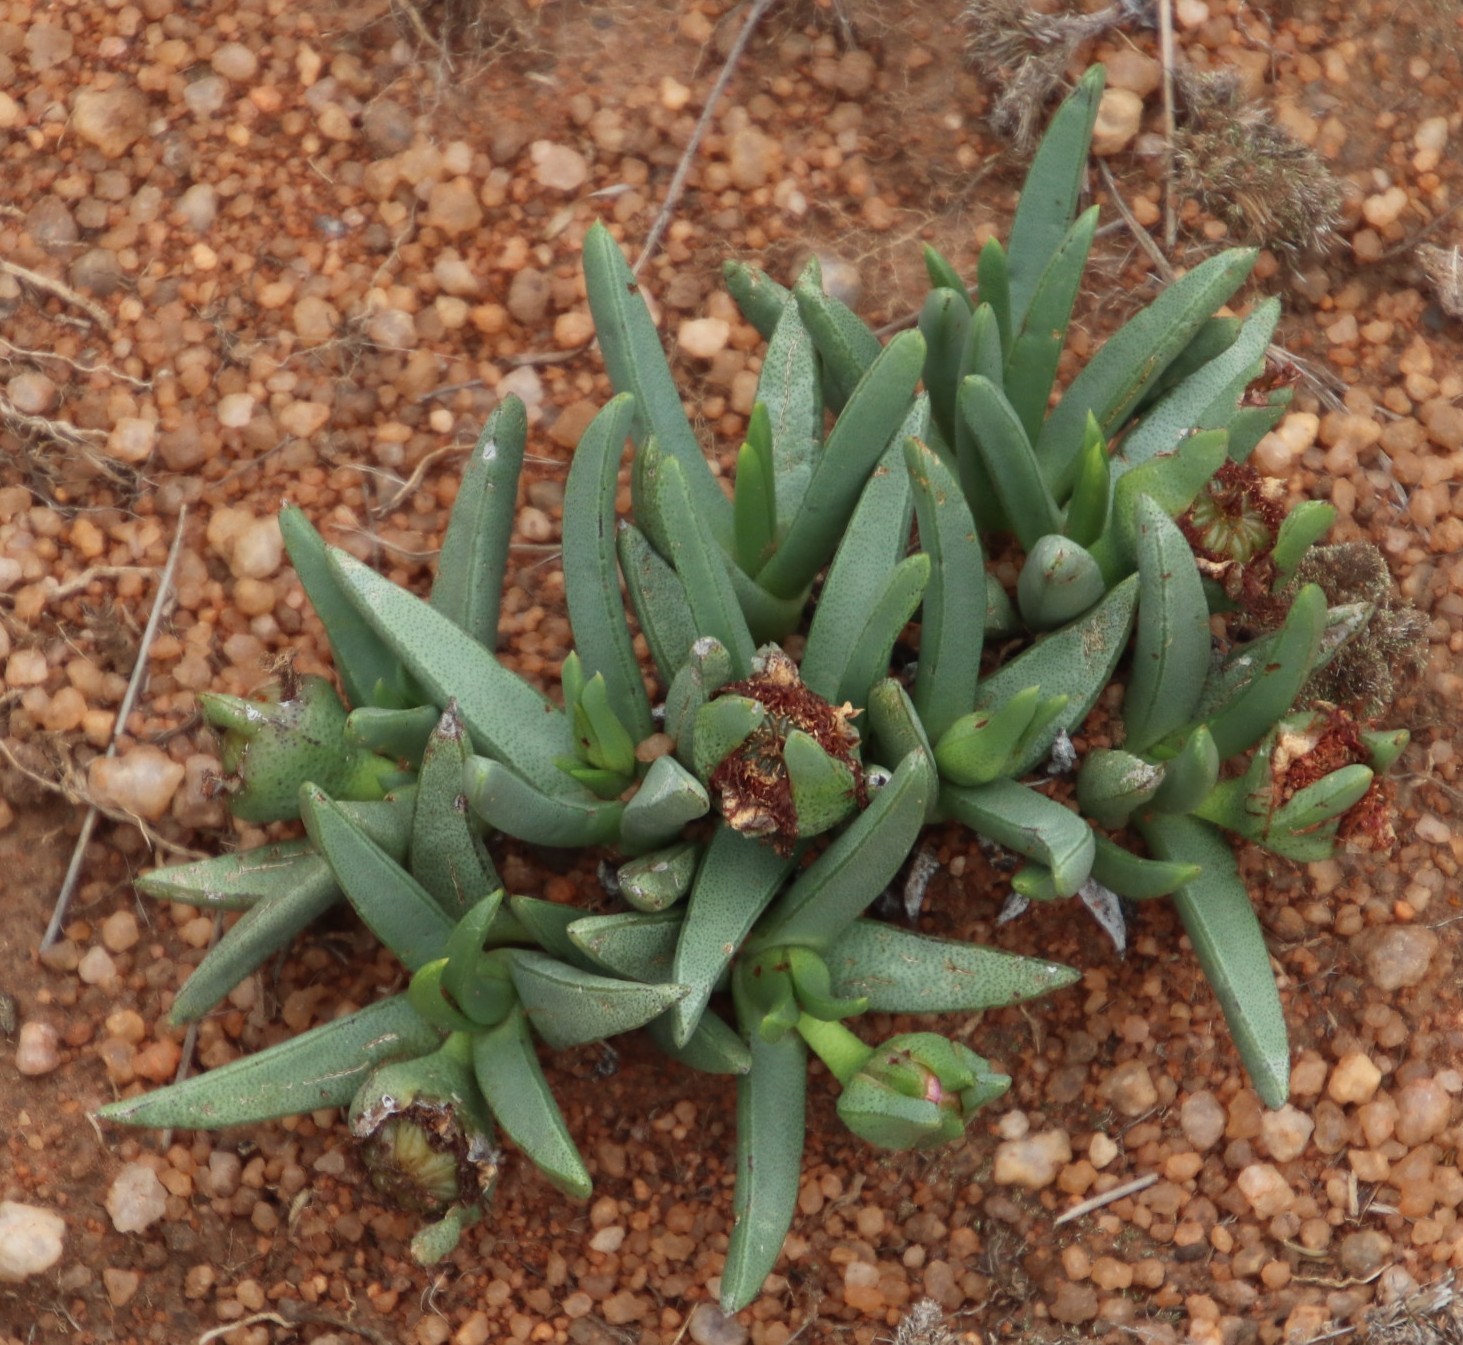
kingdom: Plantae
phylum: Tracheophyta
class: Magnoliopsida
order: Caryophyllales
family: Aizoaceae
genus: Khadia
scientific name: Khadia acutipetala
